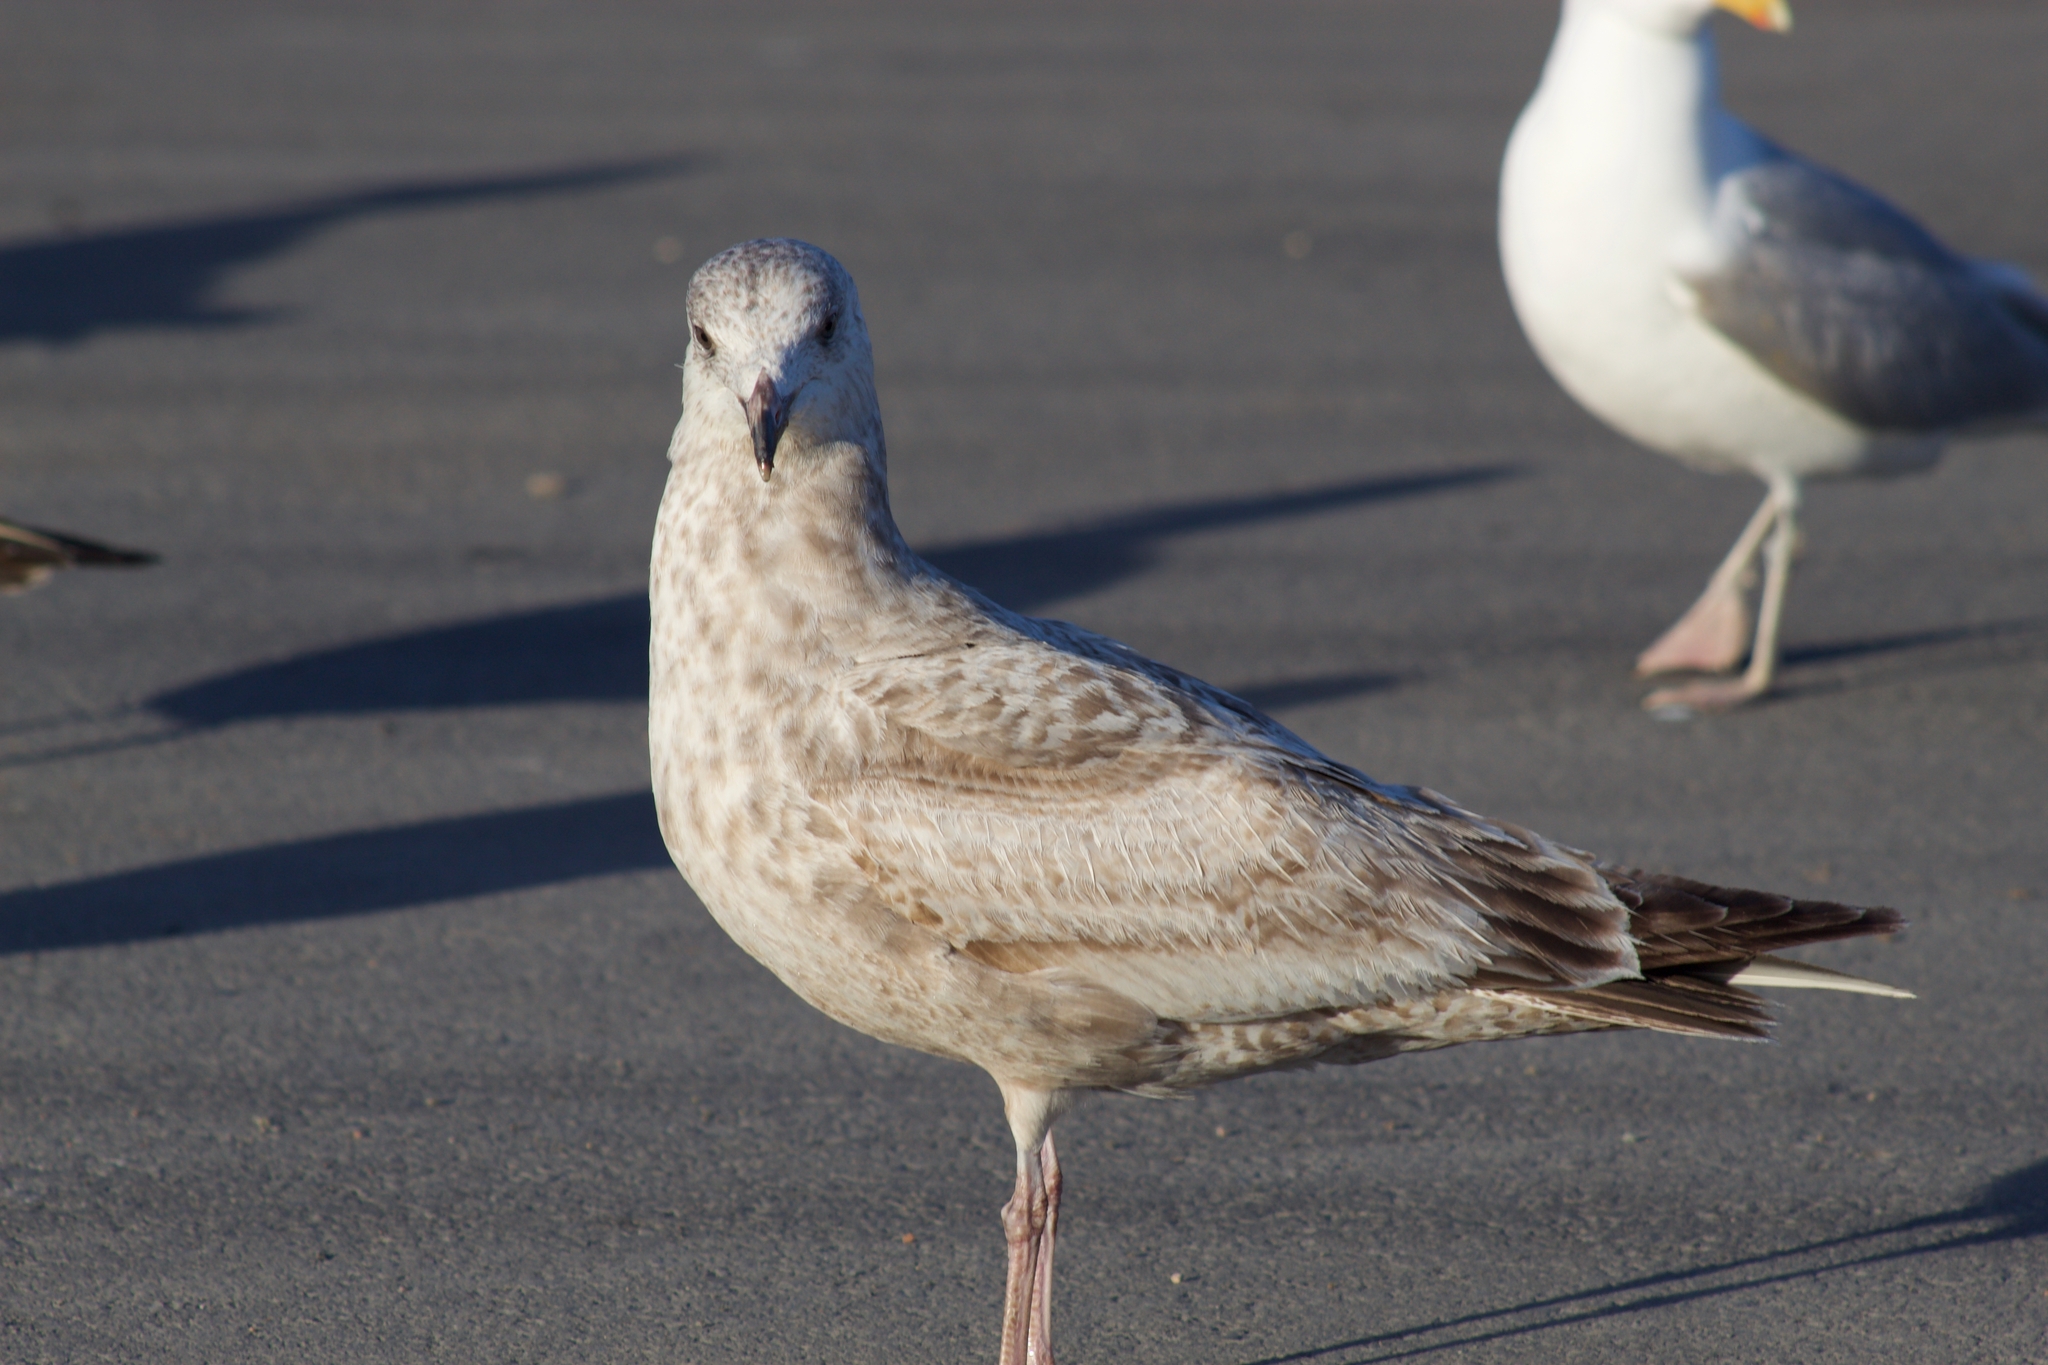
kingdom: Animalia
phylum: Chordata
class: Aves
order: Charadriiformes
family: Laridae
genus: Larus
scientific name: Larus argentatus
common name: Herring gull
